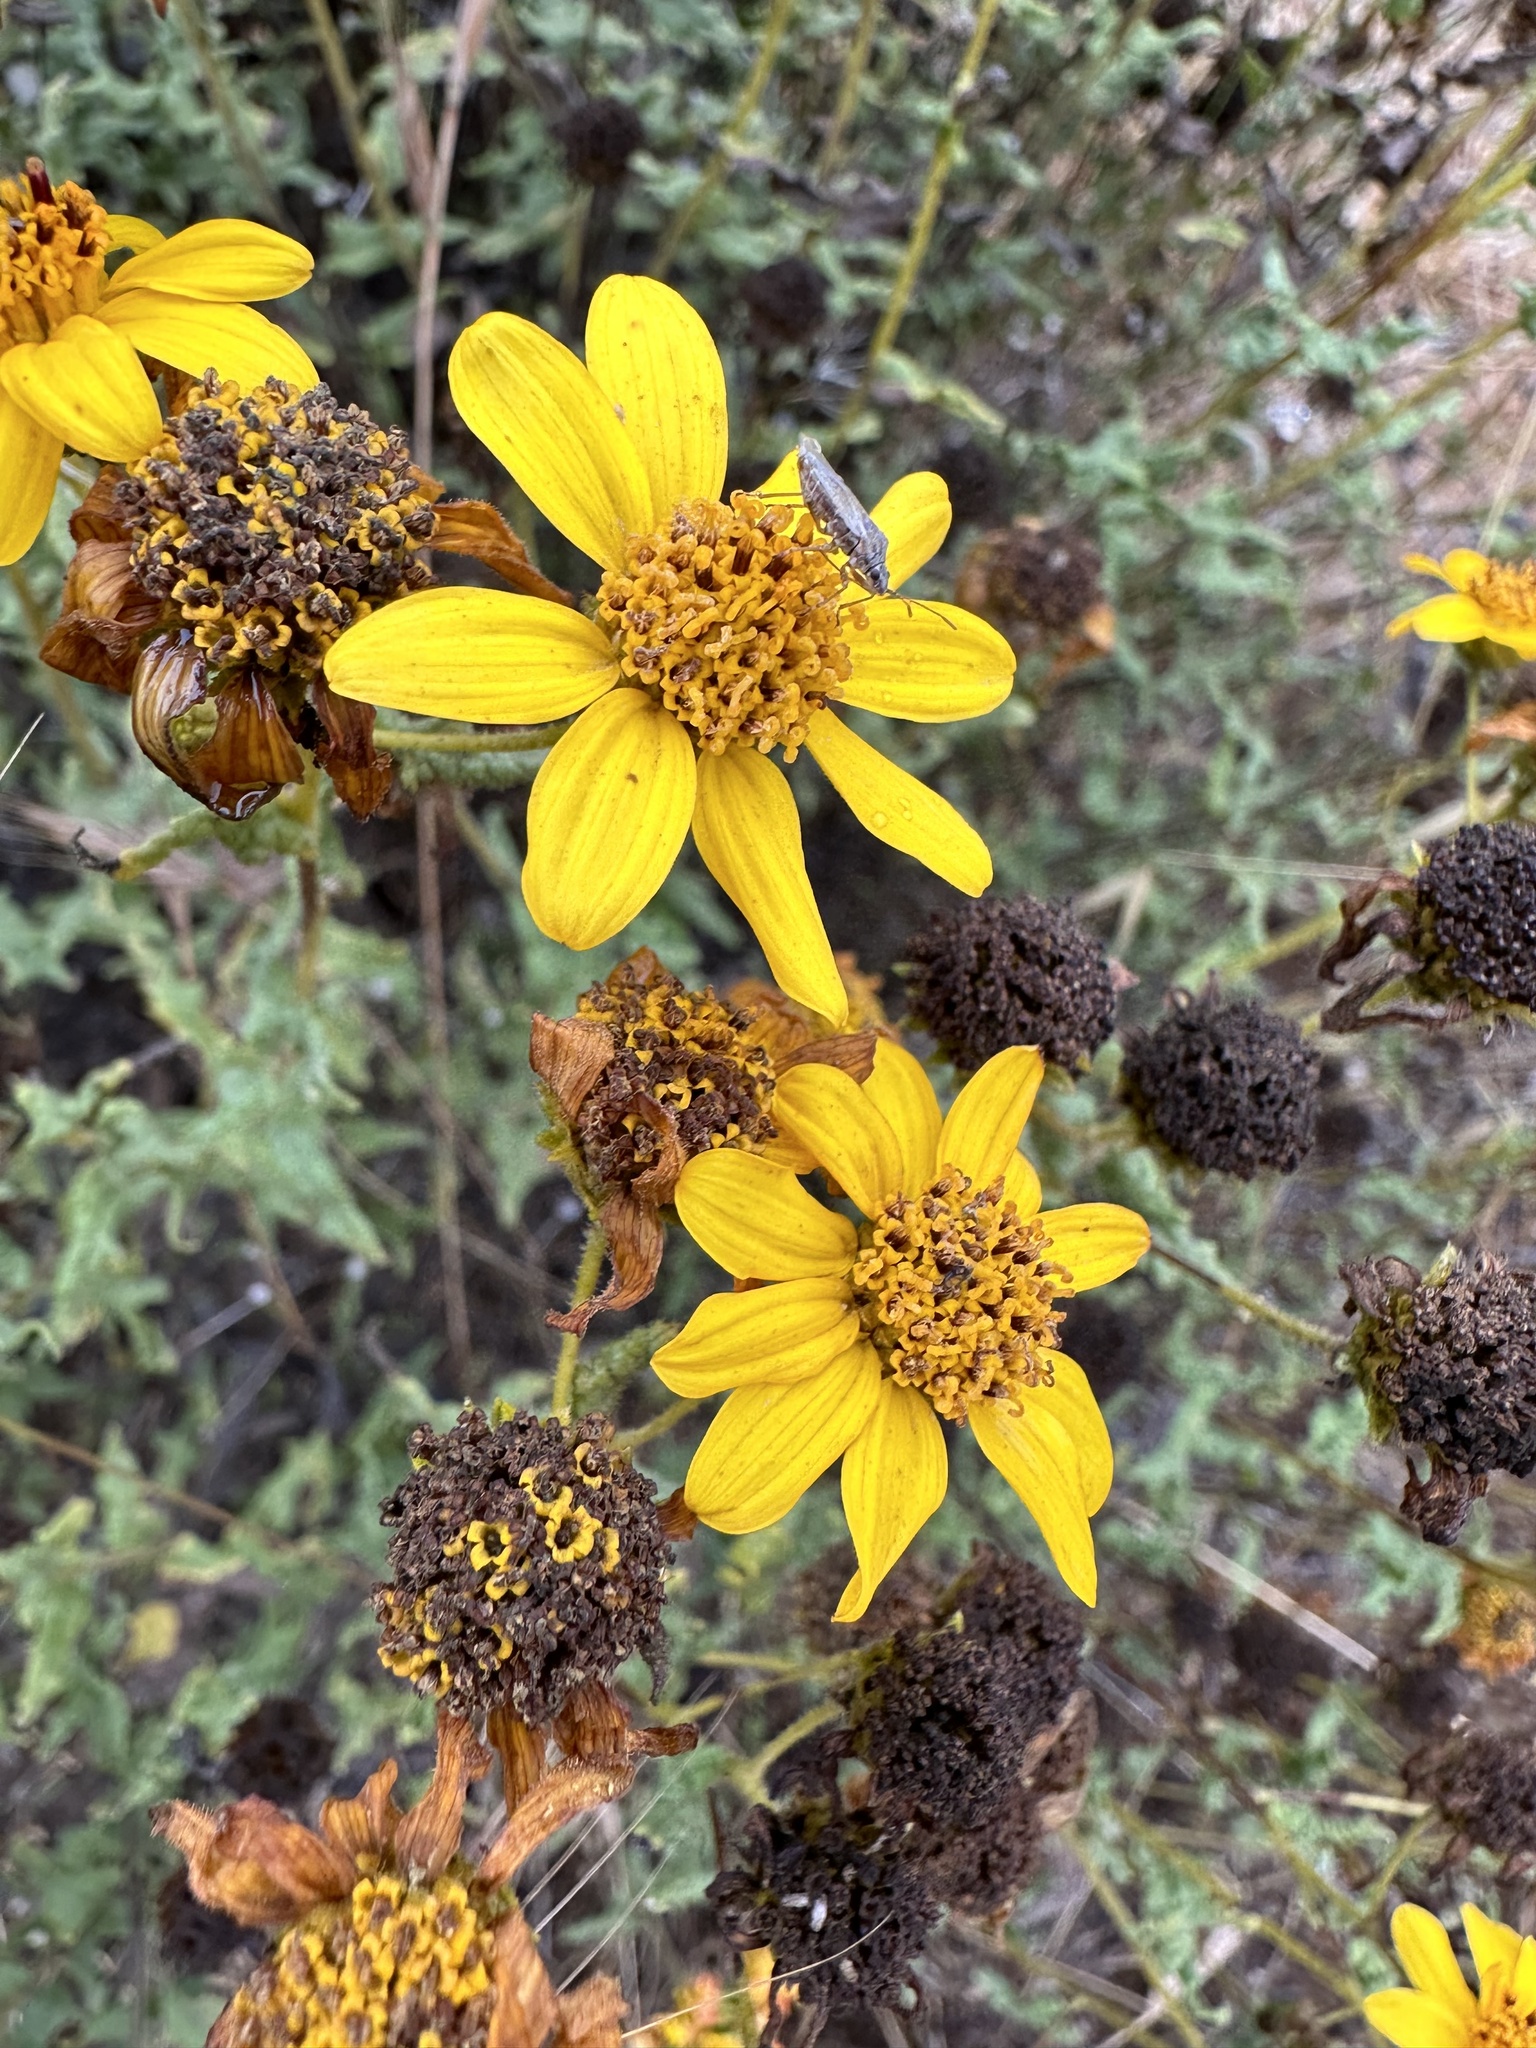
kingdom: Plantae
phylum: Tracheophyta
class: Magnoliopsida
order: Asterales
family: Asteraceae
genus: Bahiopsis
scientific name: Bahiopsis laciniata
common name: San diego county viguiera
